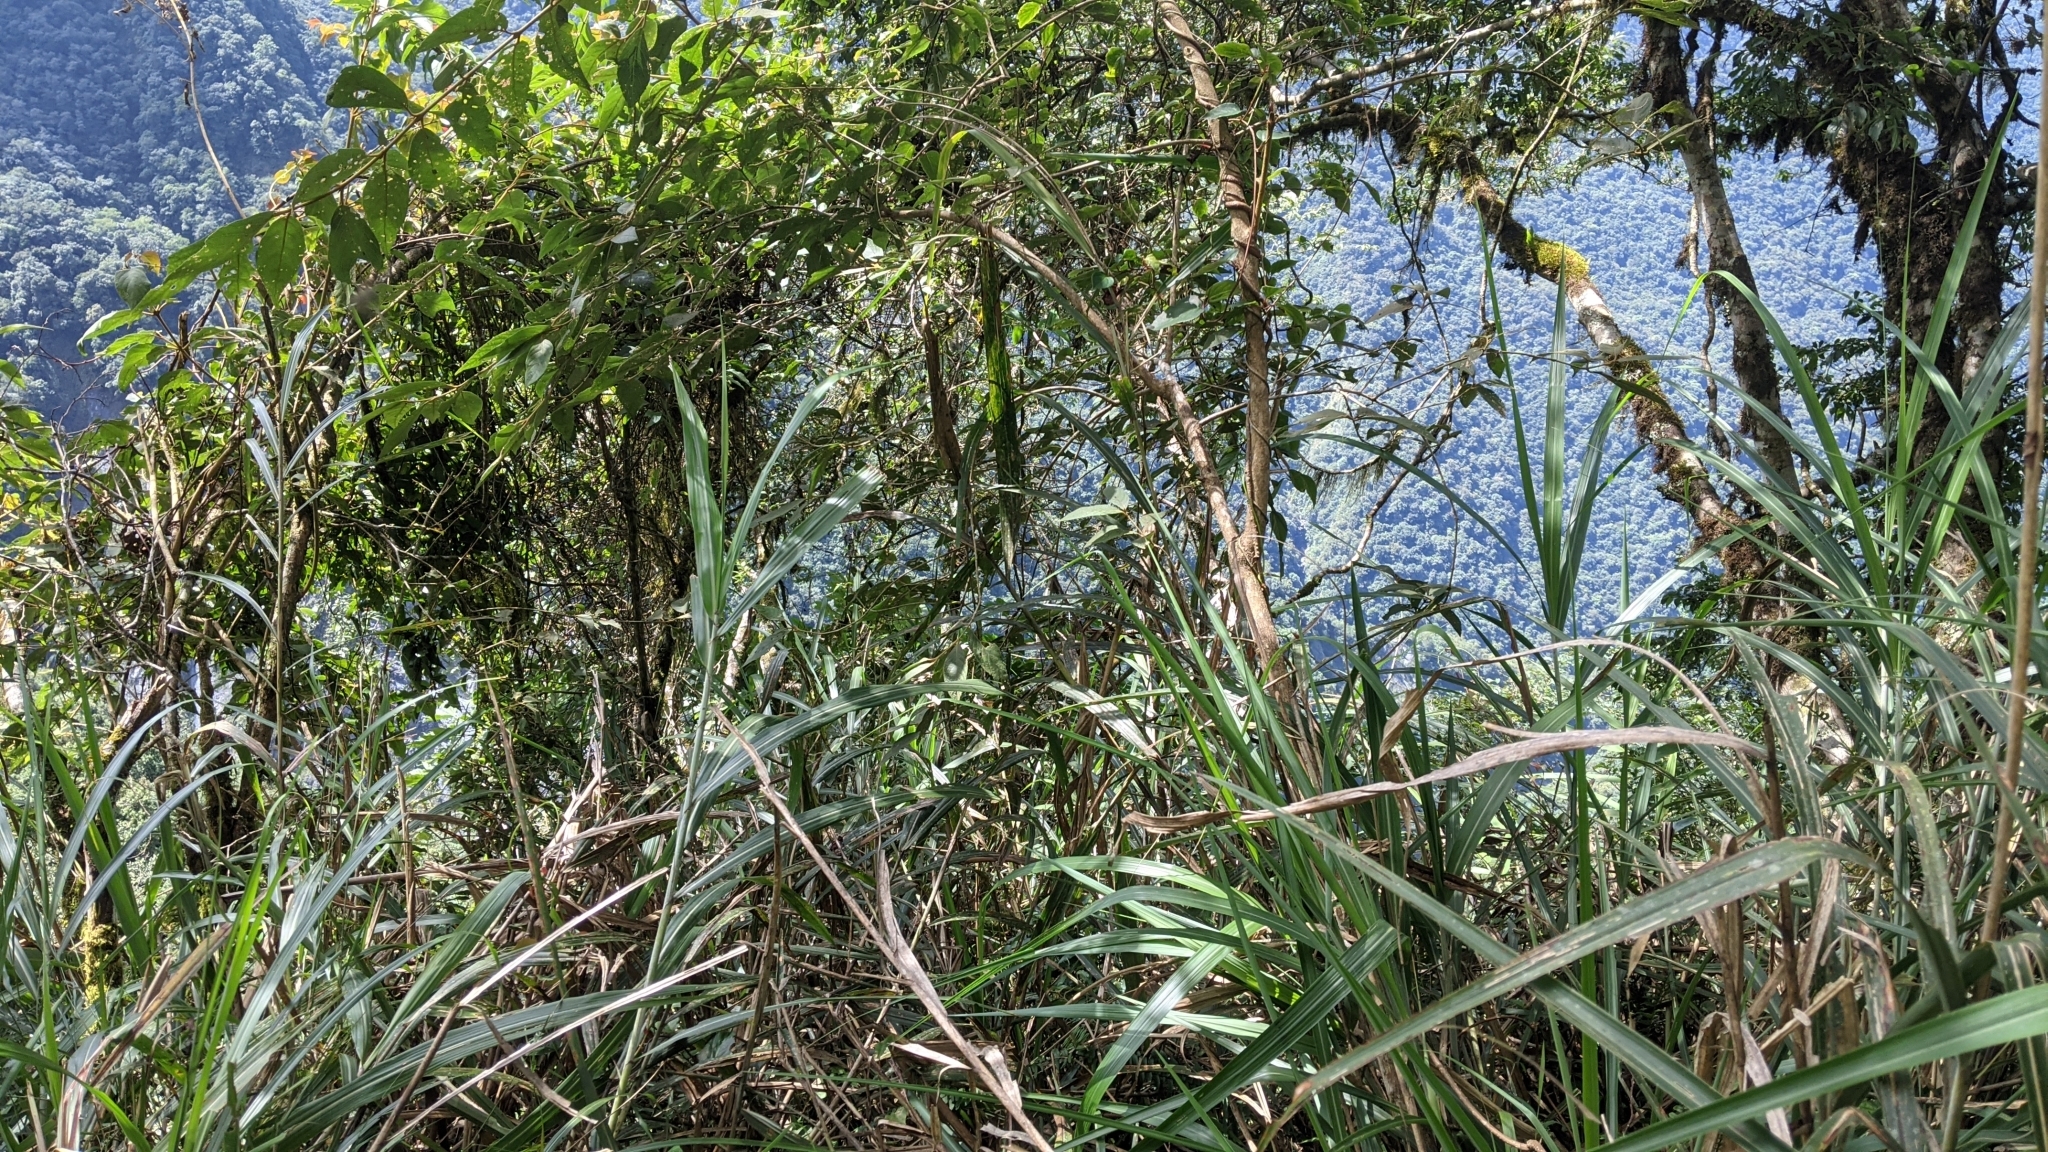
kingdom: Animalia
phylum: Chordata
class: Aves
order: Passeriformes
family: Leiothrichidae
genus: Liocichla
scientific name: Liocichla steerii
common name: Steere's liocichla
